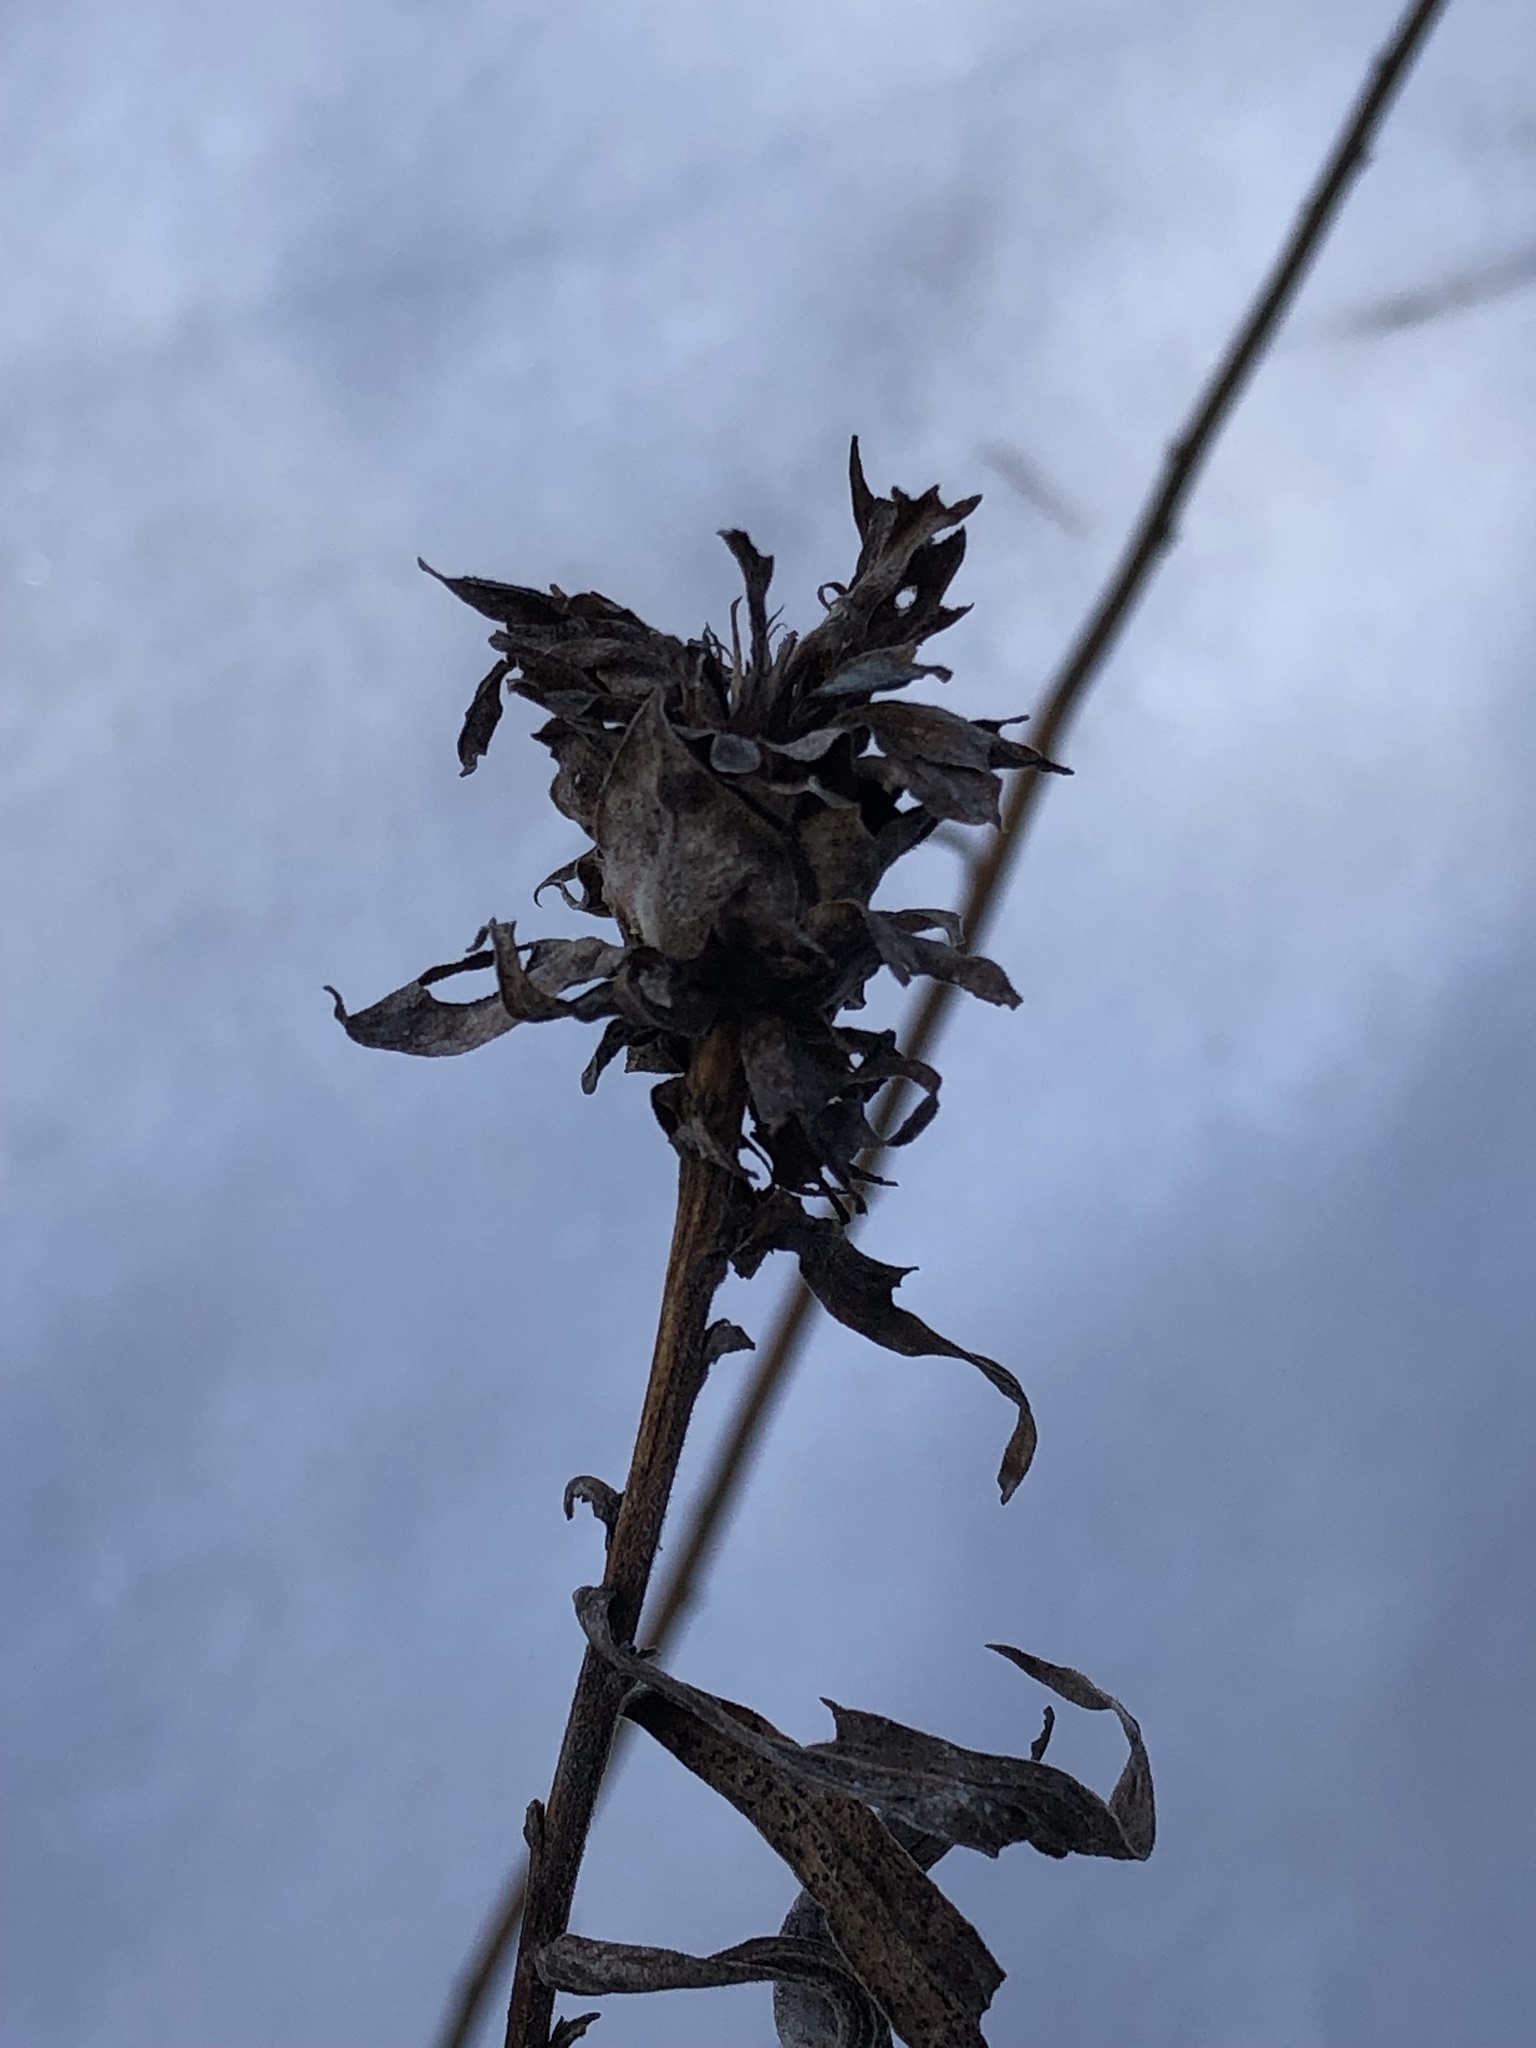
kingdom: Animalia
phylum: Arthropoda
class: Insecta
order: Diptera
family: Cecidomyiidae
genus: Rhopalomyia
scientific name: Rhopalomyia solidaginis
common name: Goldenrod bunch gall midge
